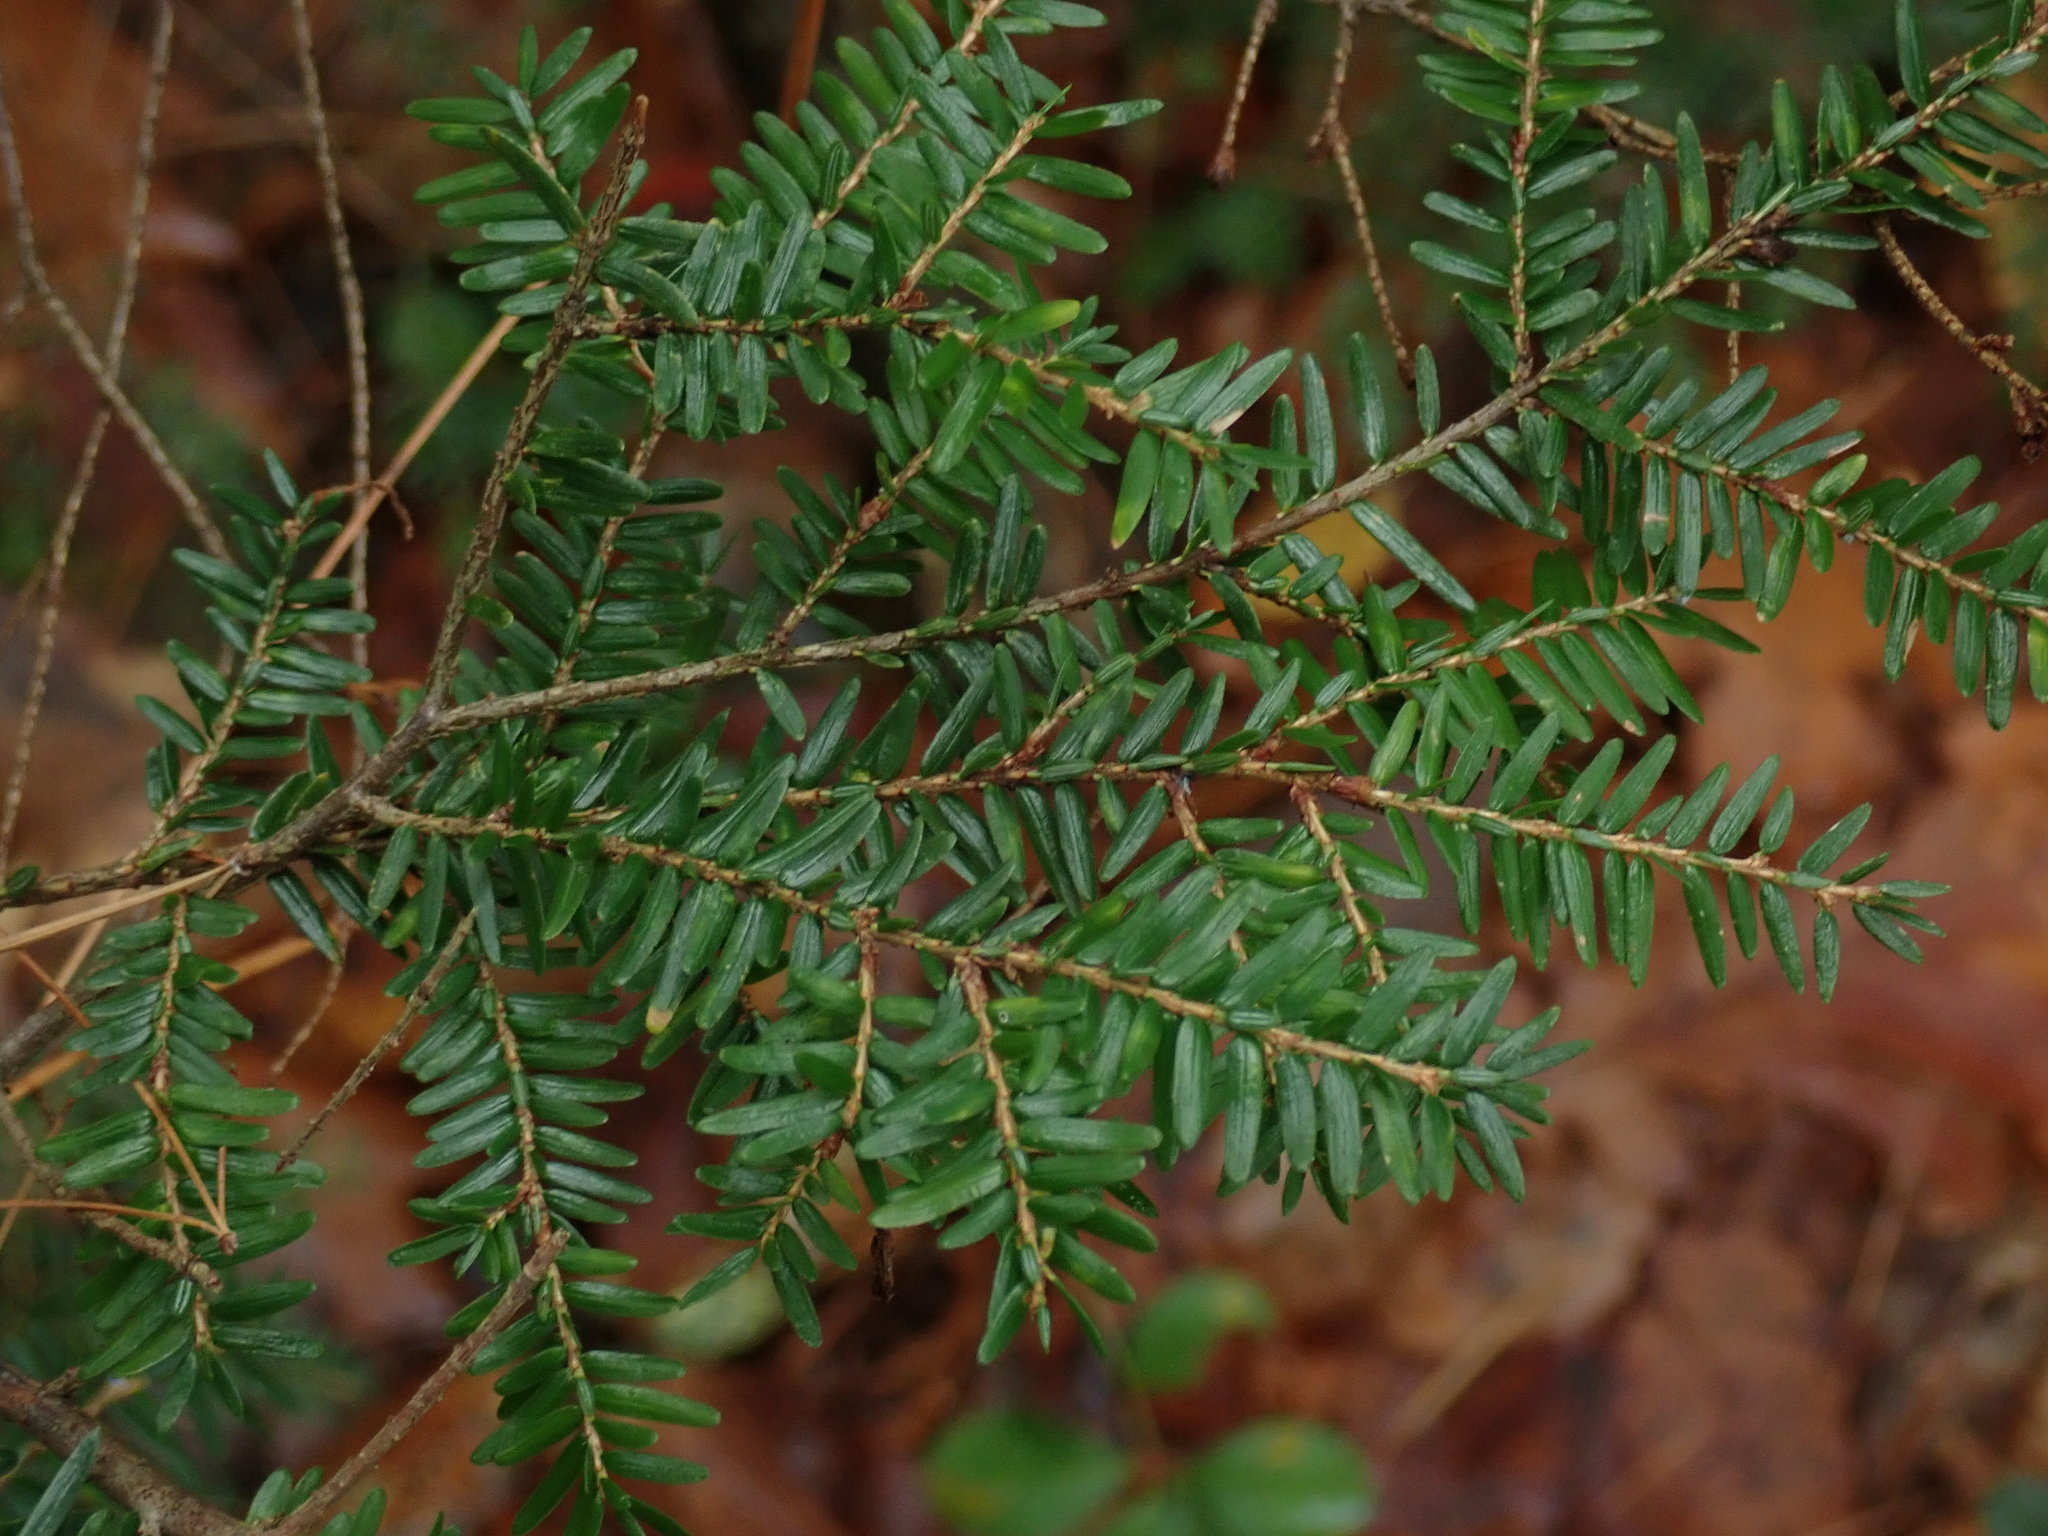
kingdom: Plantae
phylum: Tracheophyta
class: Pinopsida
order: Pinales
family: Pinaceae
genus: Tsuga
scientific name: Tsuga canadensis
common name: Eastern hemlock
